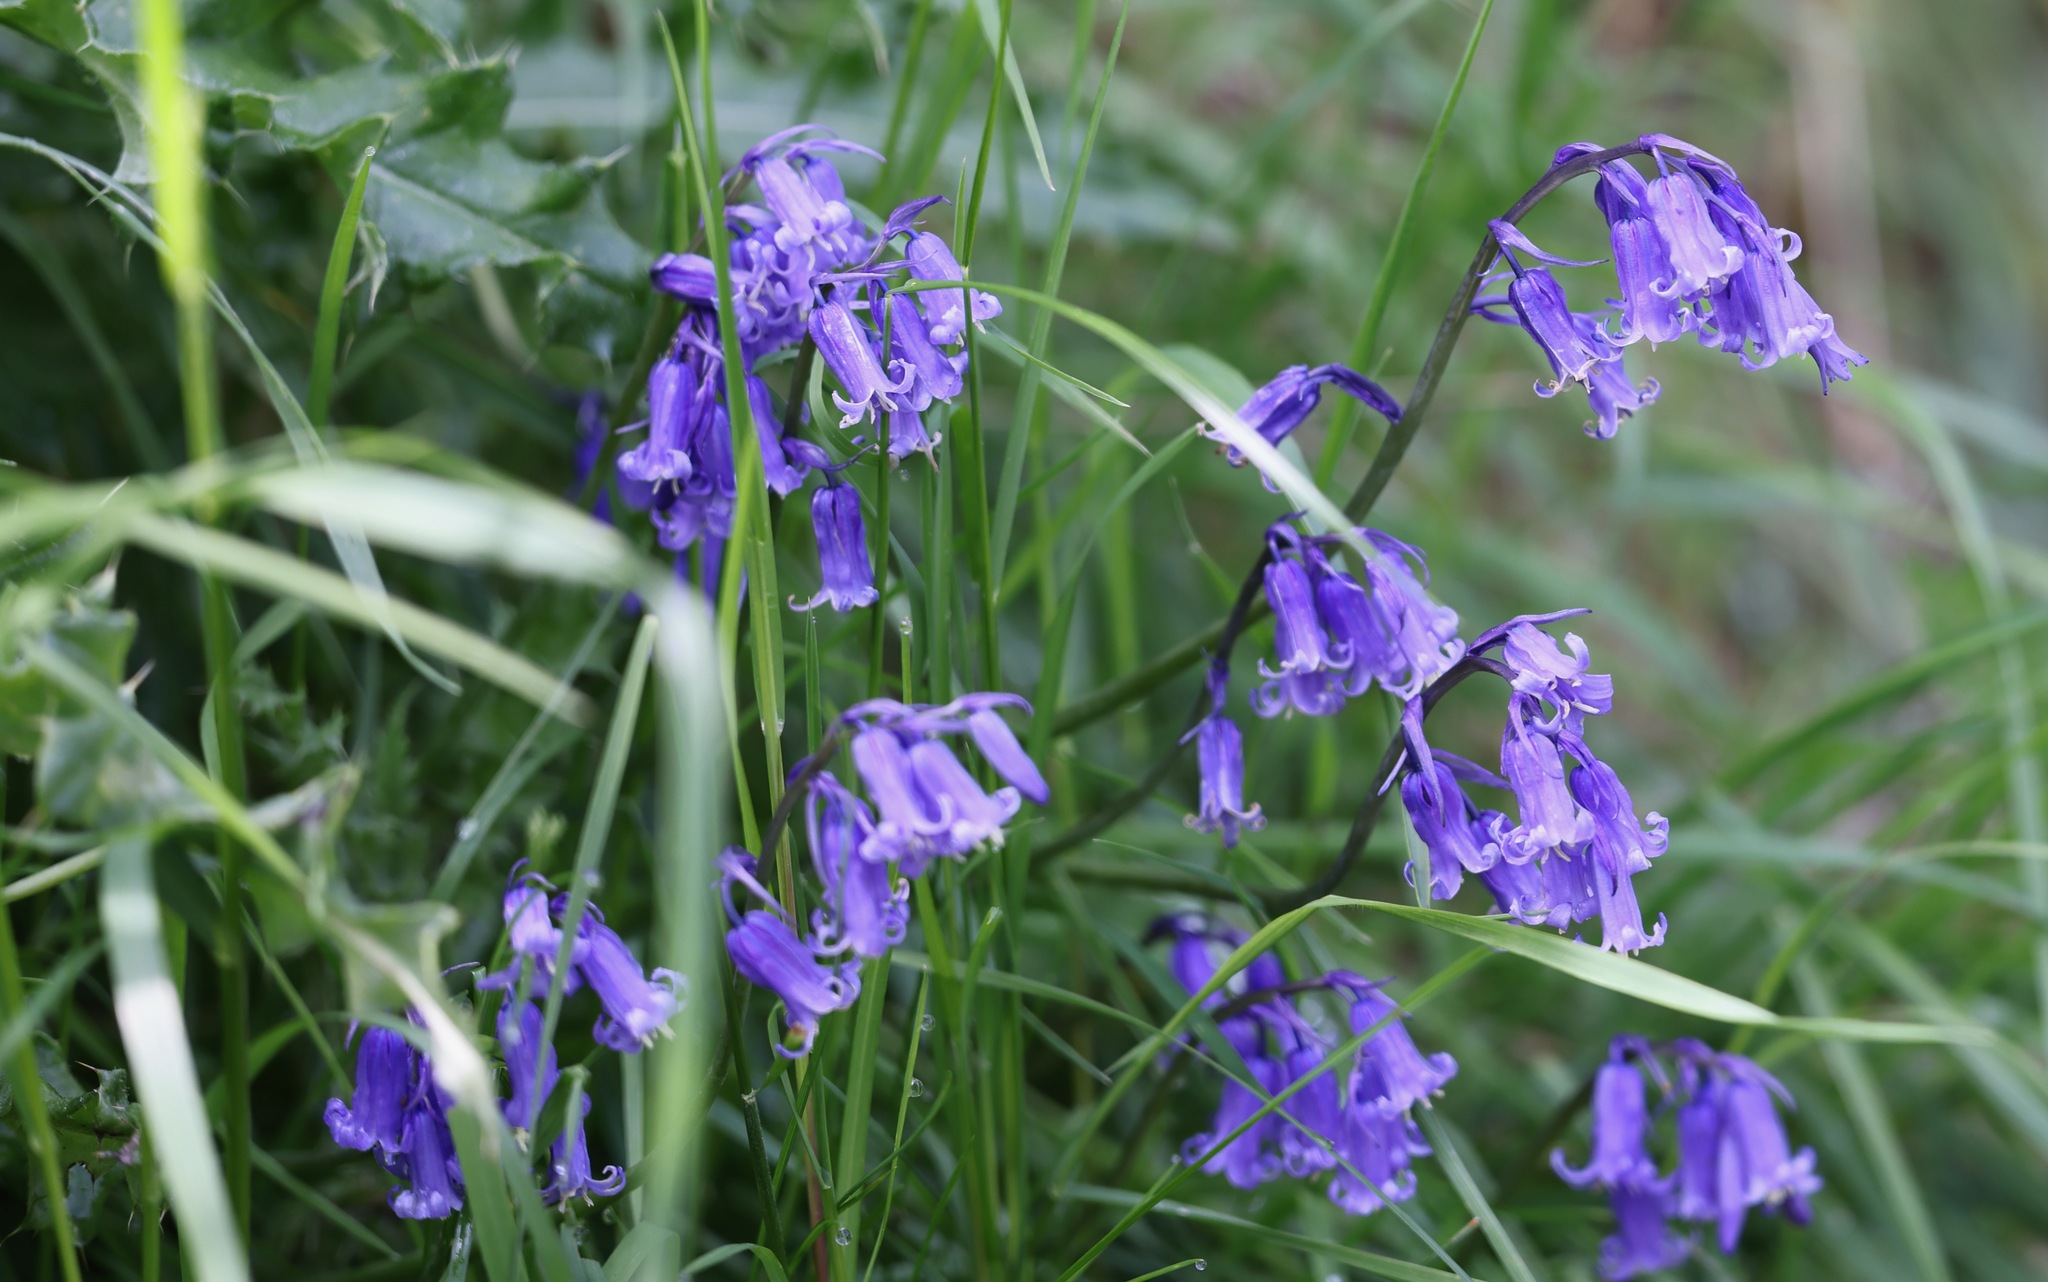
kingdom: Plantae
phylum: Tracheophyta
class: Liliopsida
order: Asparagales
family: Asparagaceae
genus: Hyacinthoides
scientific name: Hyacinthoides non-scripta
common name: Bluebell
